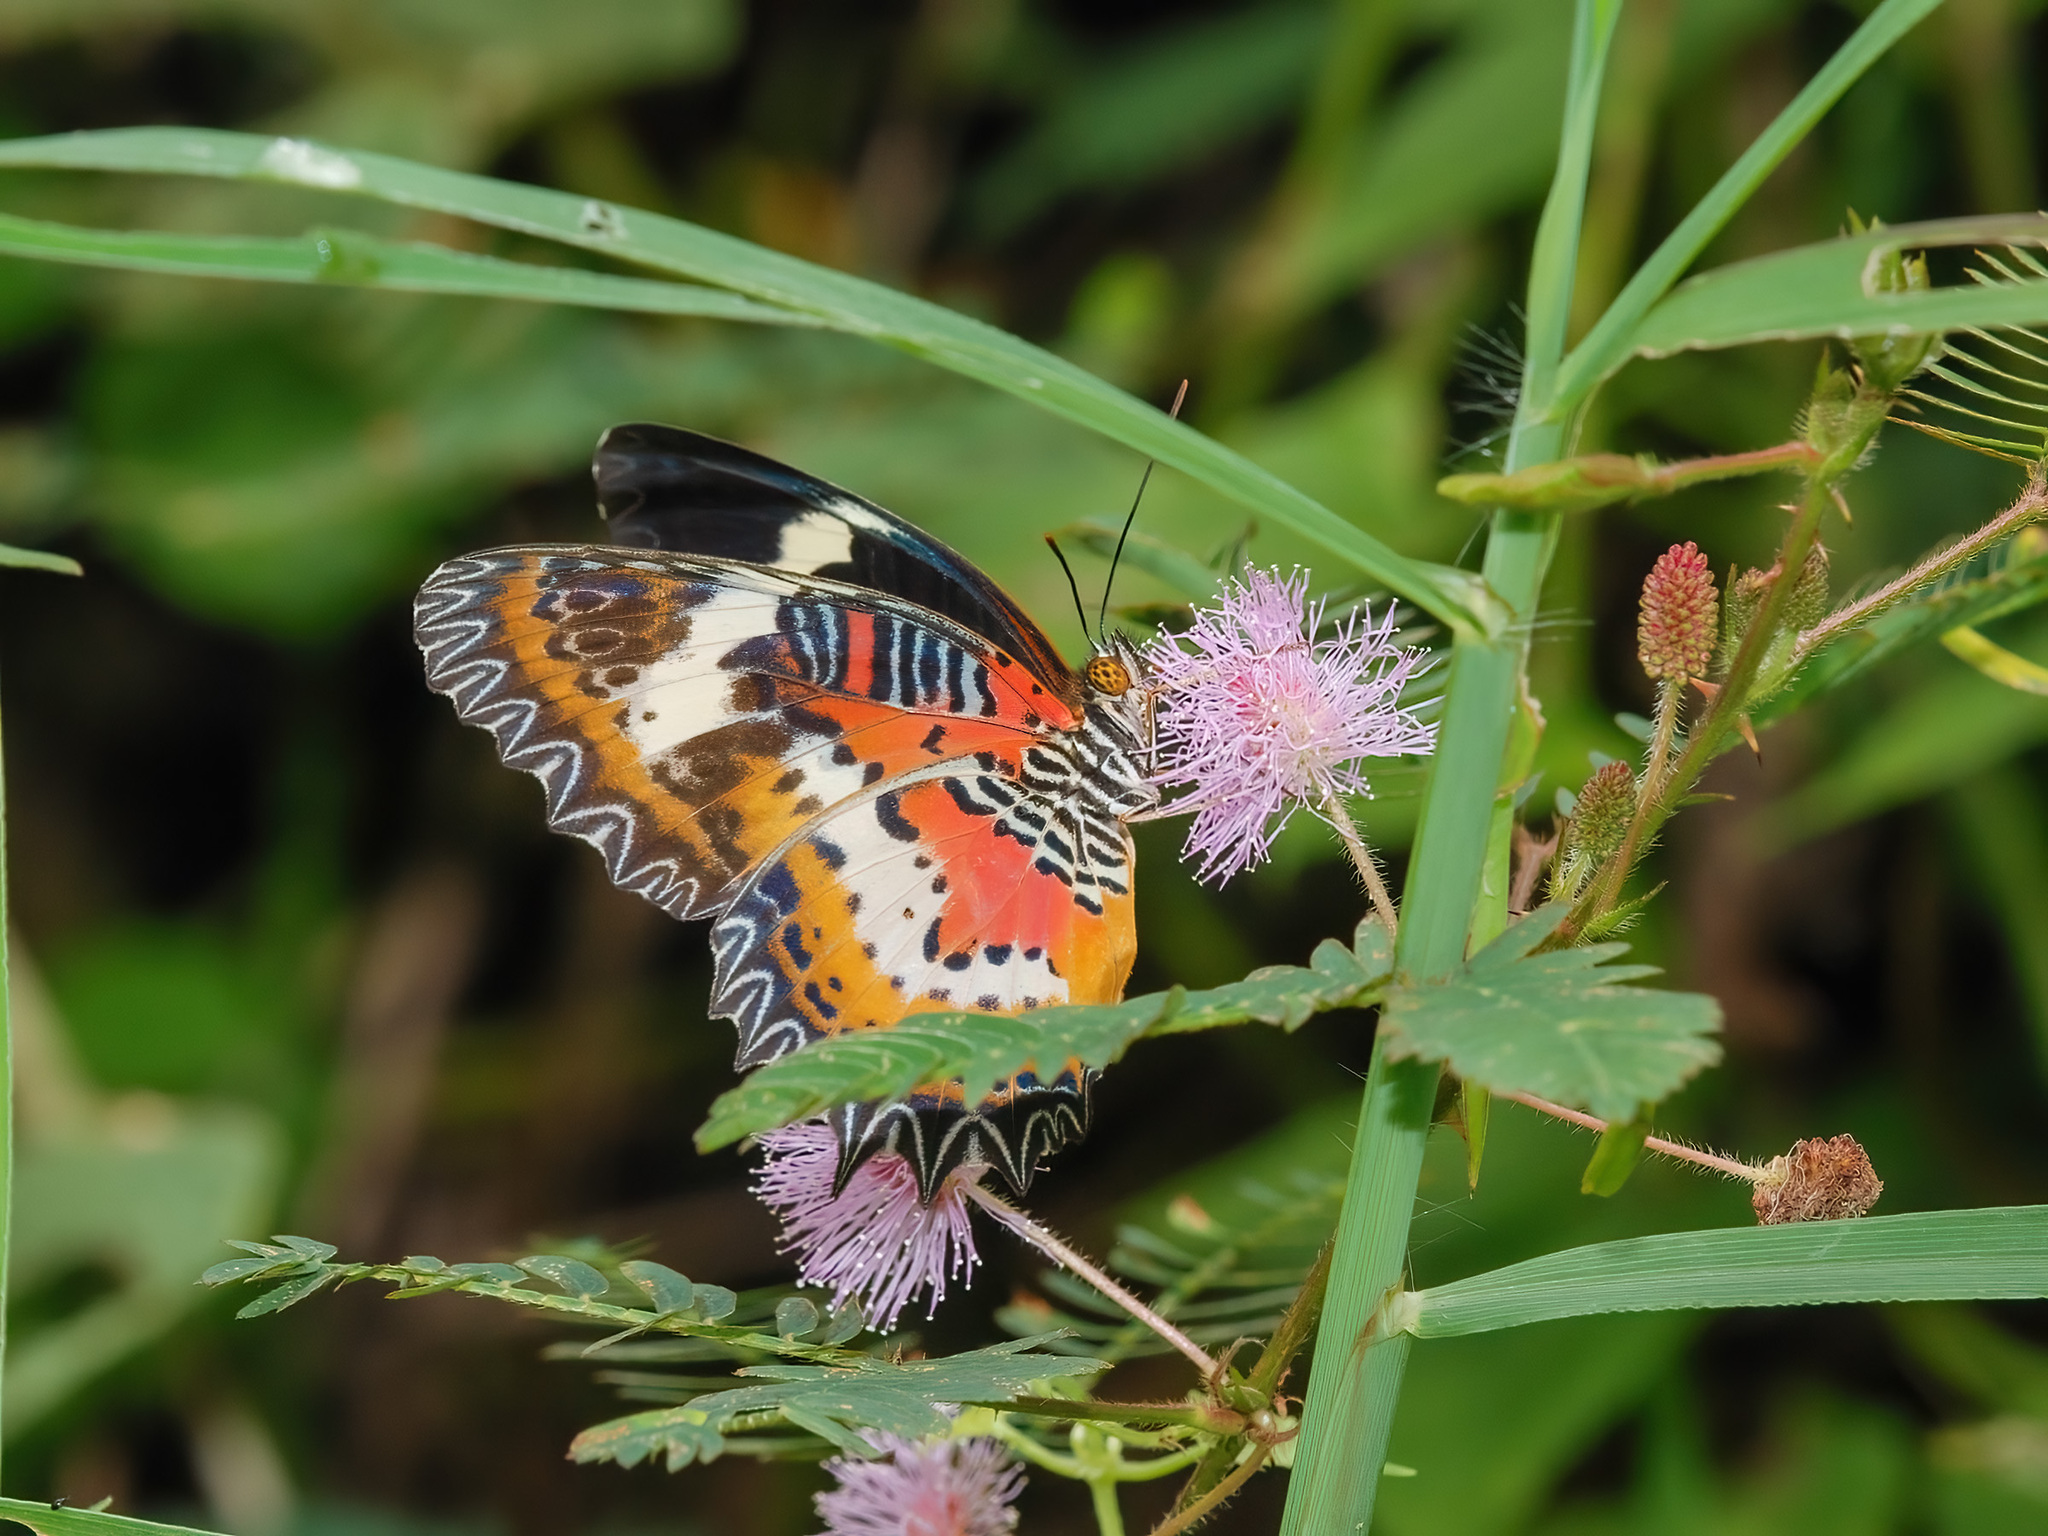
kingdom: Animalia
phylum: Arthropoda
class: Insecta
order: Lepidoptera
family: Nymphalidae
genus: Cethosia
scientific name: Cethosia hypsea
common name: Malayan lacewing butterfly
